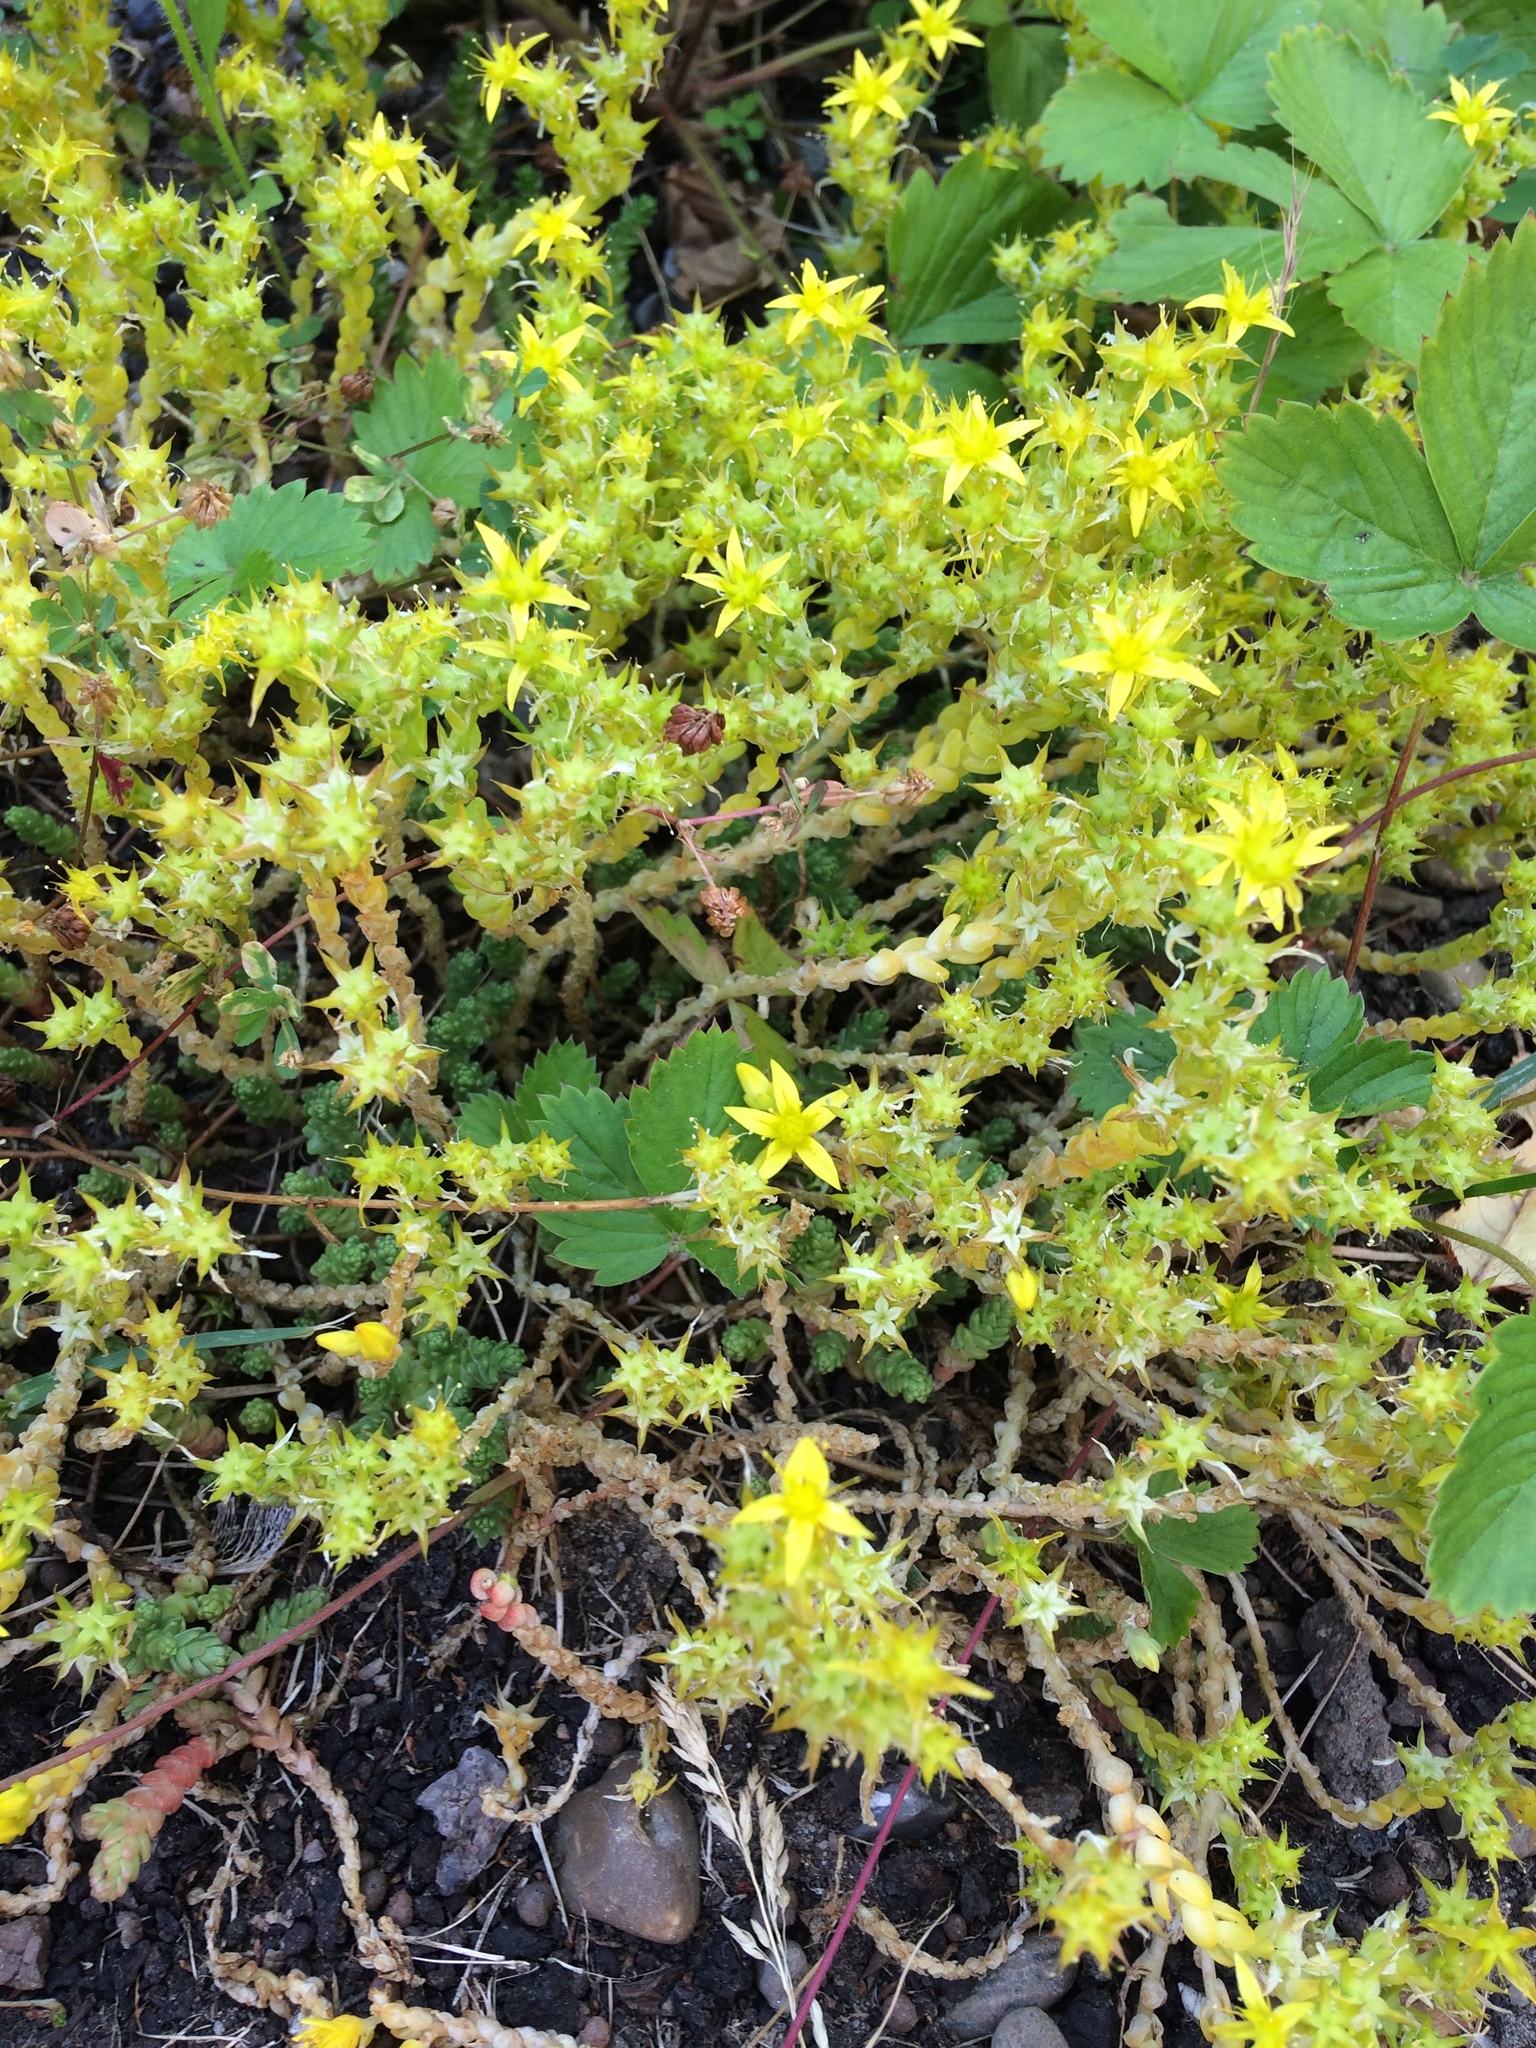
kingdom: Plantae
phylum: Tracheophyta
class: Magnoliopsida
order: Saxifragales
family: Crassulaceae
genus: Sedum
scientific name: Sedum acre
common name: Biting stonecrop
